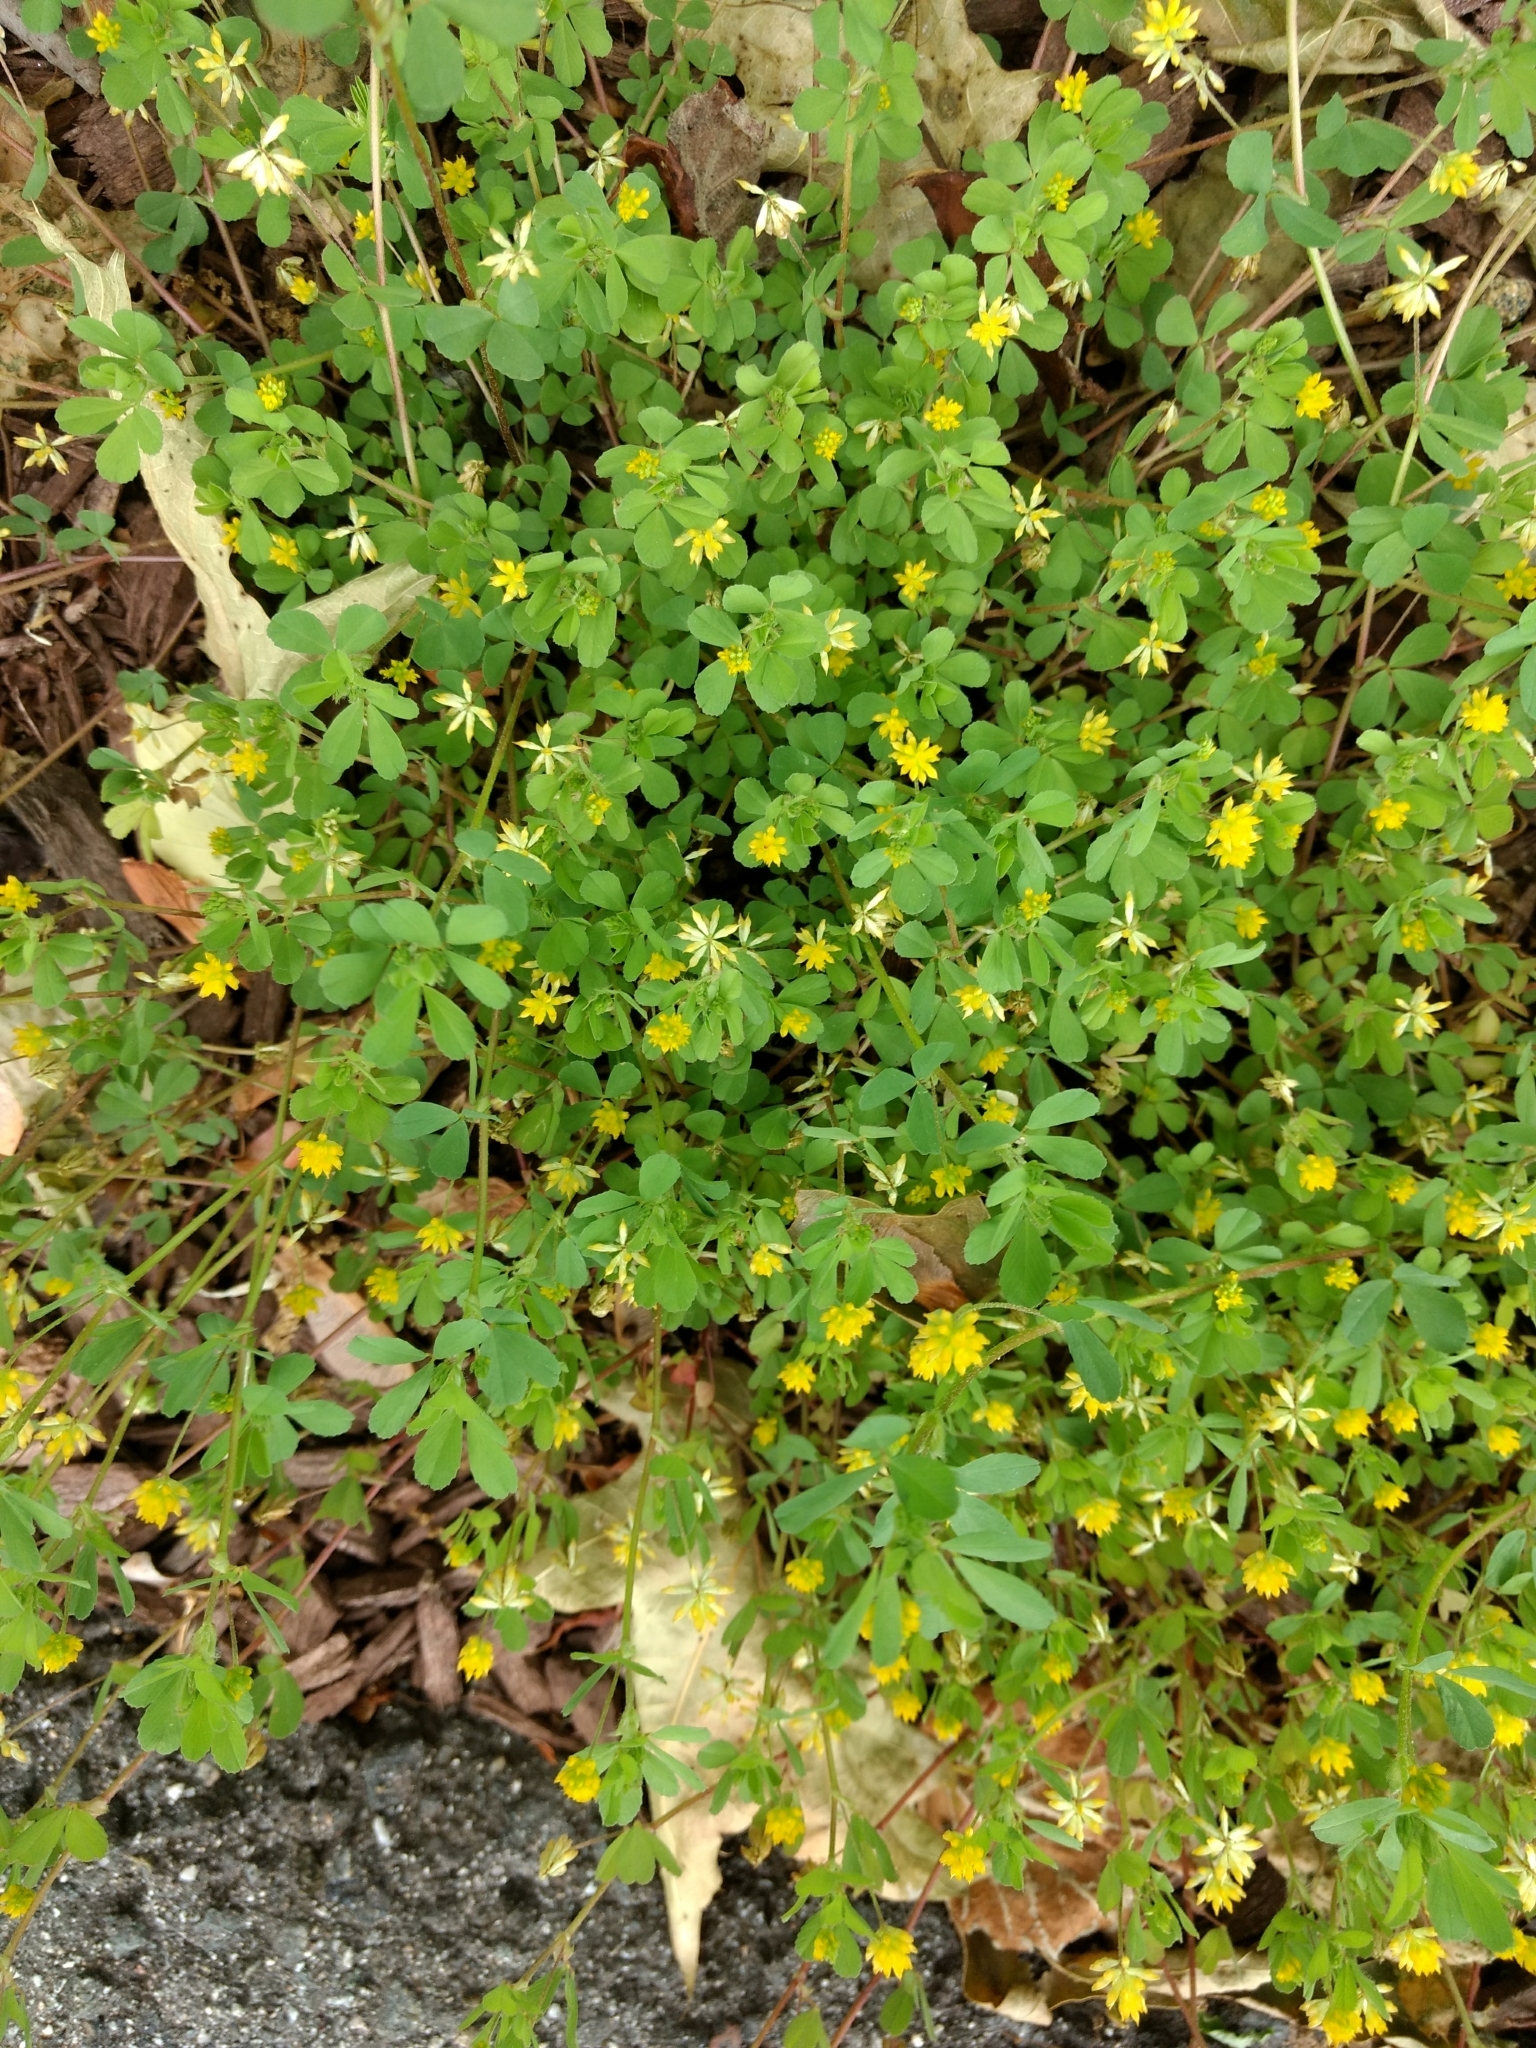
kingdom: Plantae
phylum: Tracheophyta
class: Magnoliopsida
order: Fabales
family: Fabaceae
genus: Trifolium
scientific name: Trifolium dubium
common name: Suckling clover
